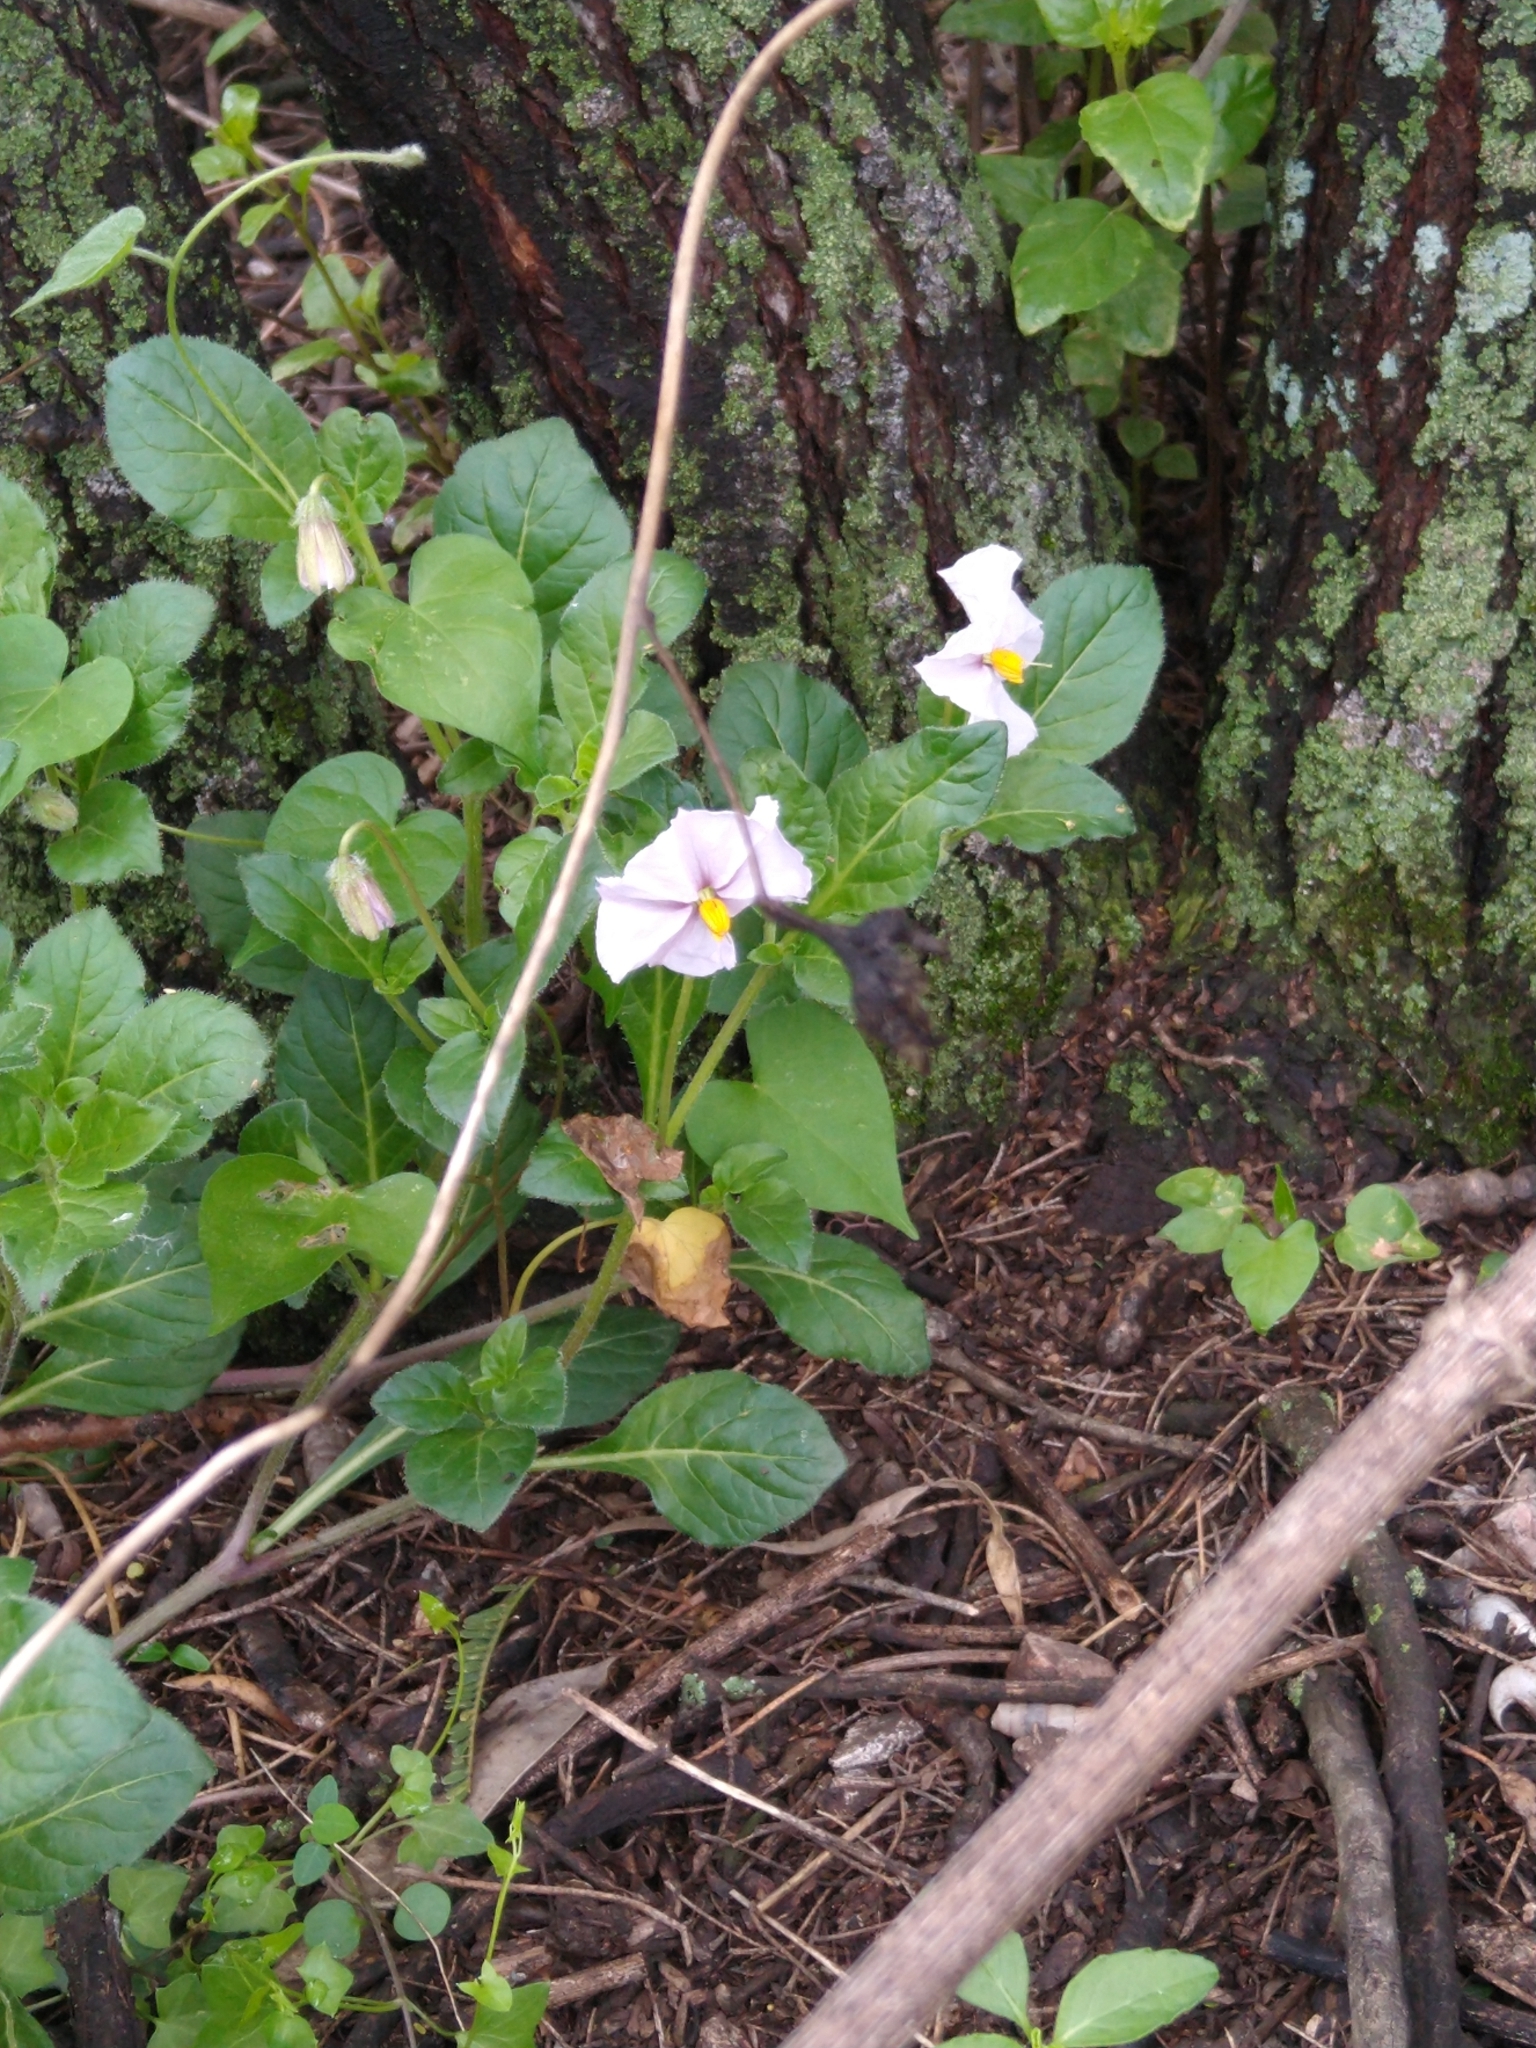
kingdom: Plantae
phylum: Tracheophyta
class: Magnoliopsida
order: Solanales
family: Solanaceae
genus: Lycianthes
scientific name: Lycianthes peduncularis
